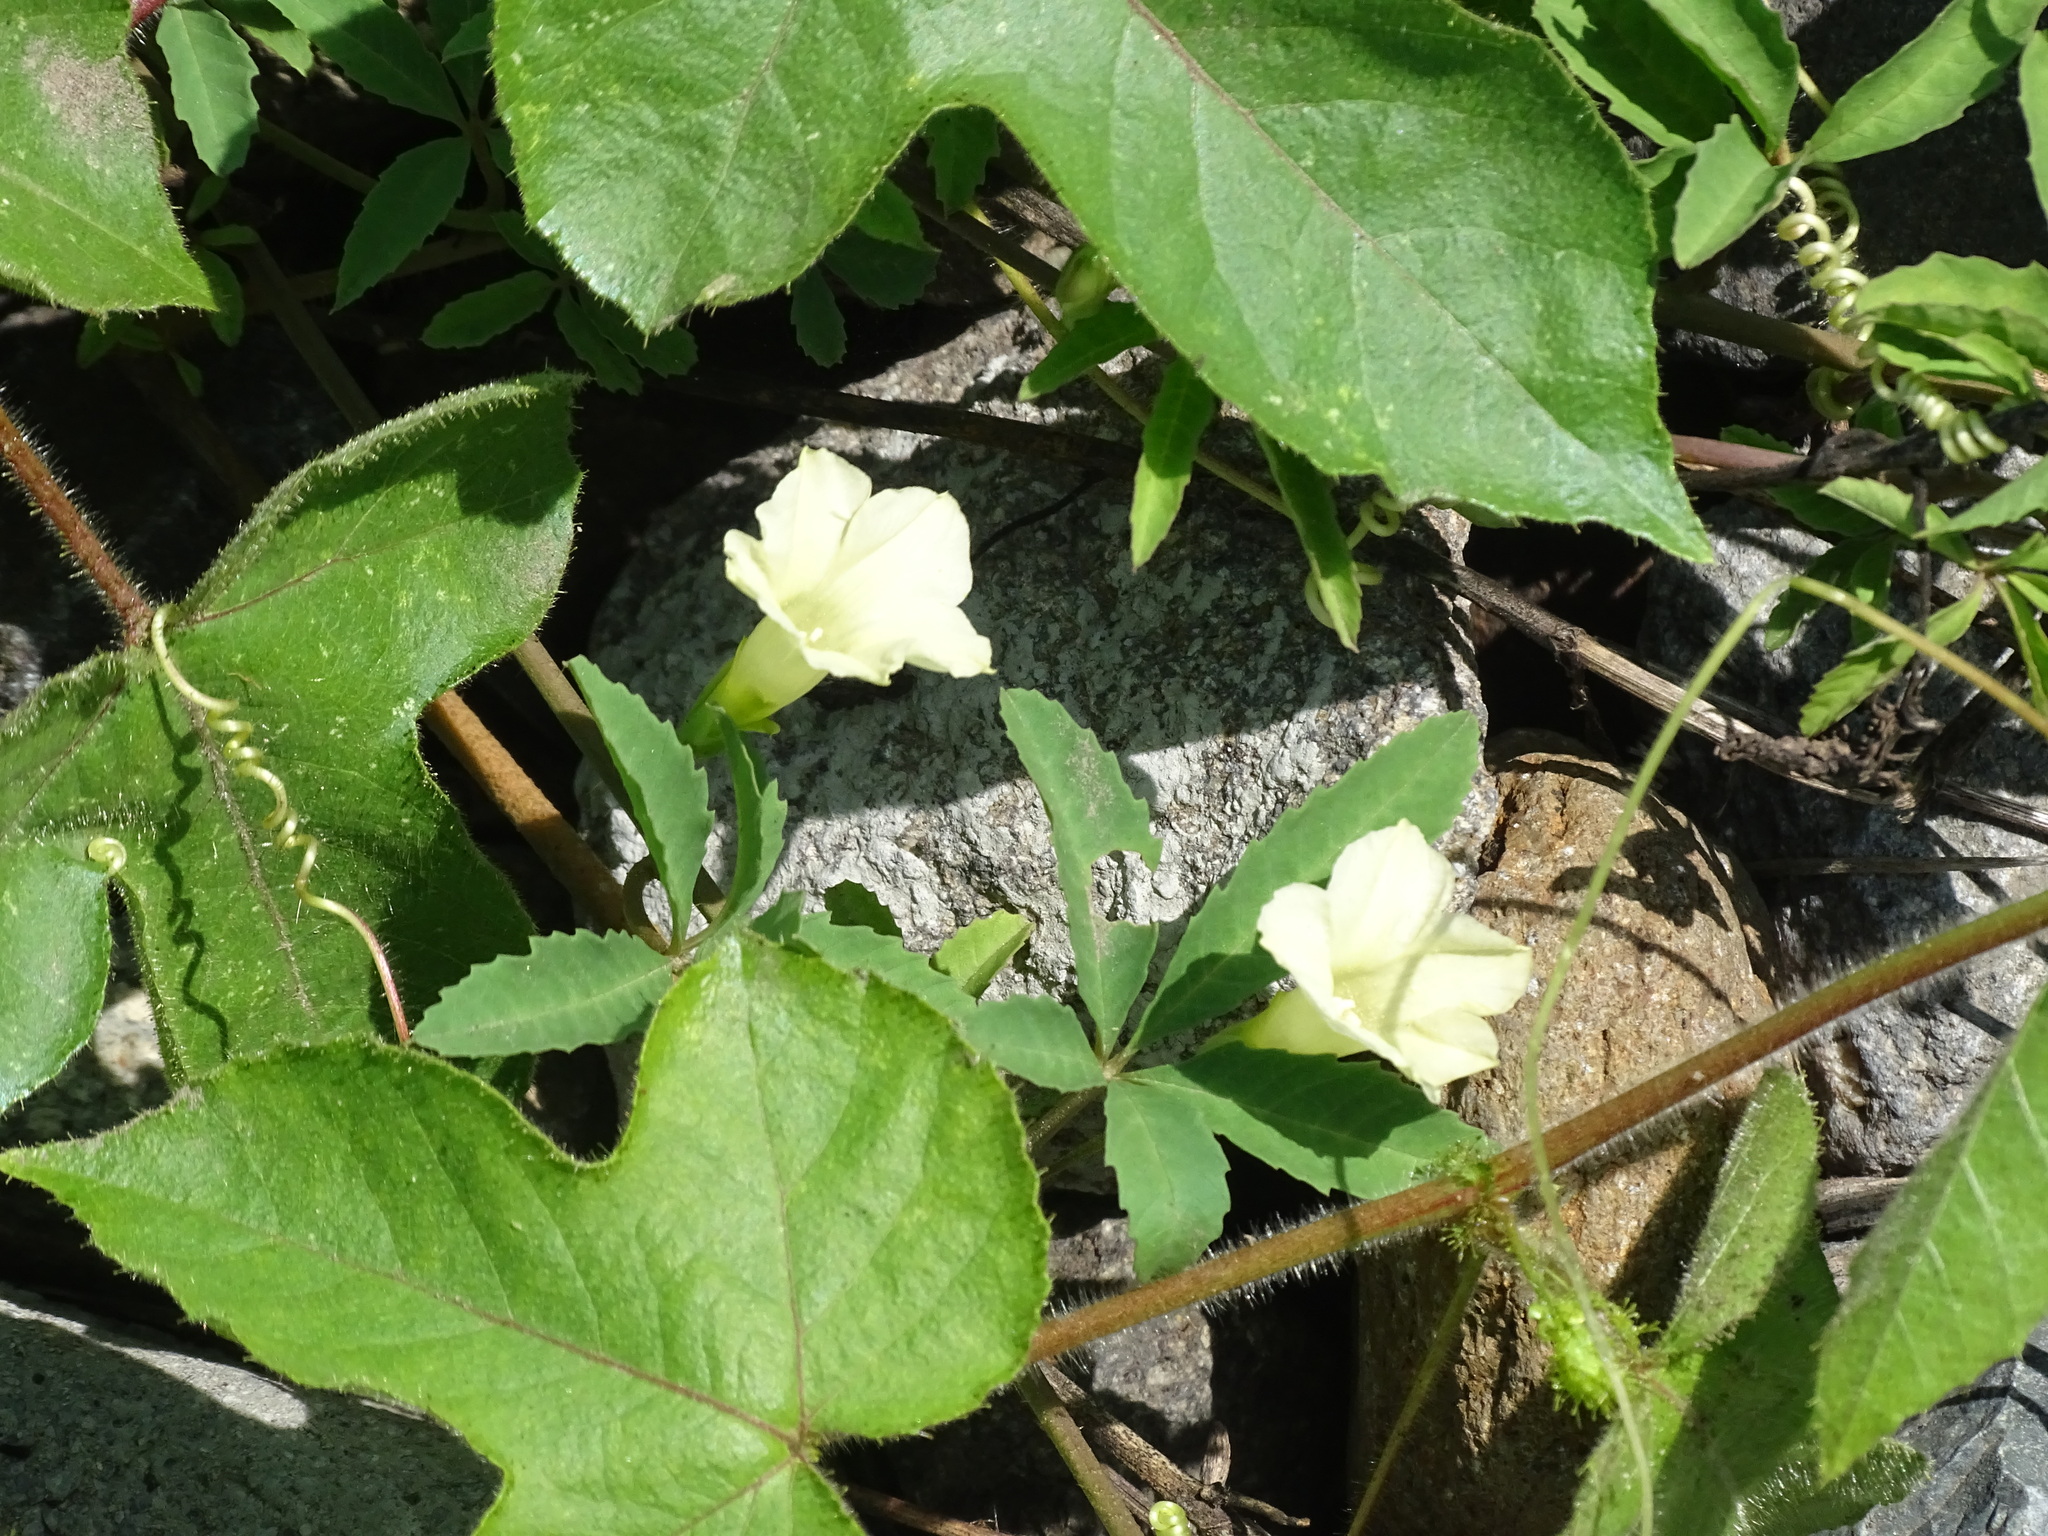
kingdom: Plantae
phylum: Tracheophyta
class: Magnoliopsida
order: Solanales
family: Convolvulaceae
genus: Distimake
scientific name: Distimake quinquefolius
